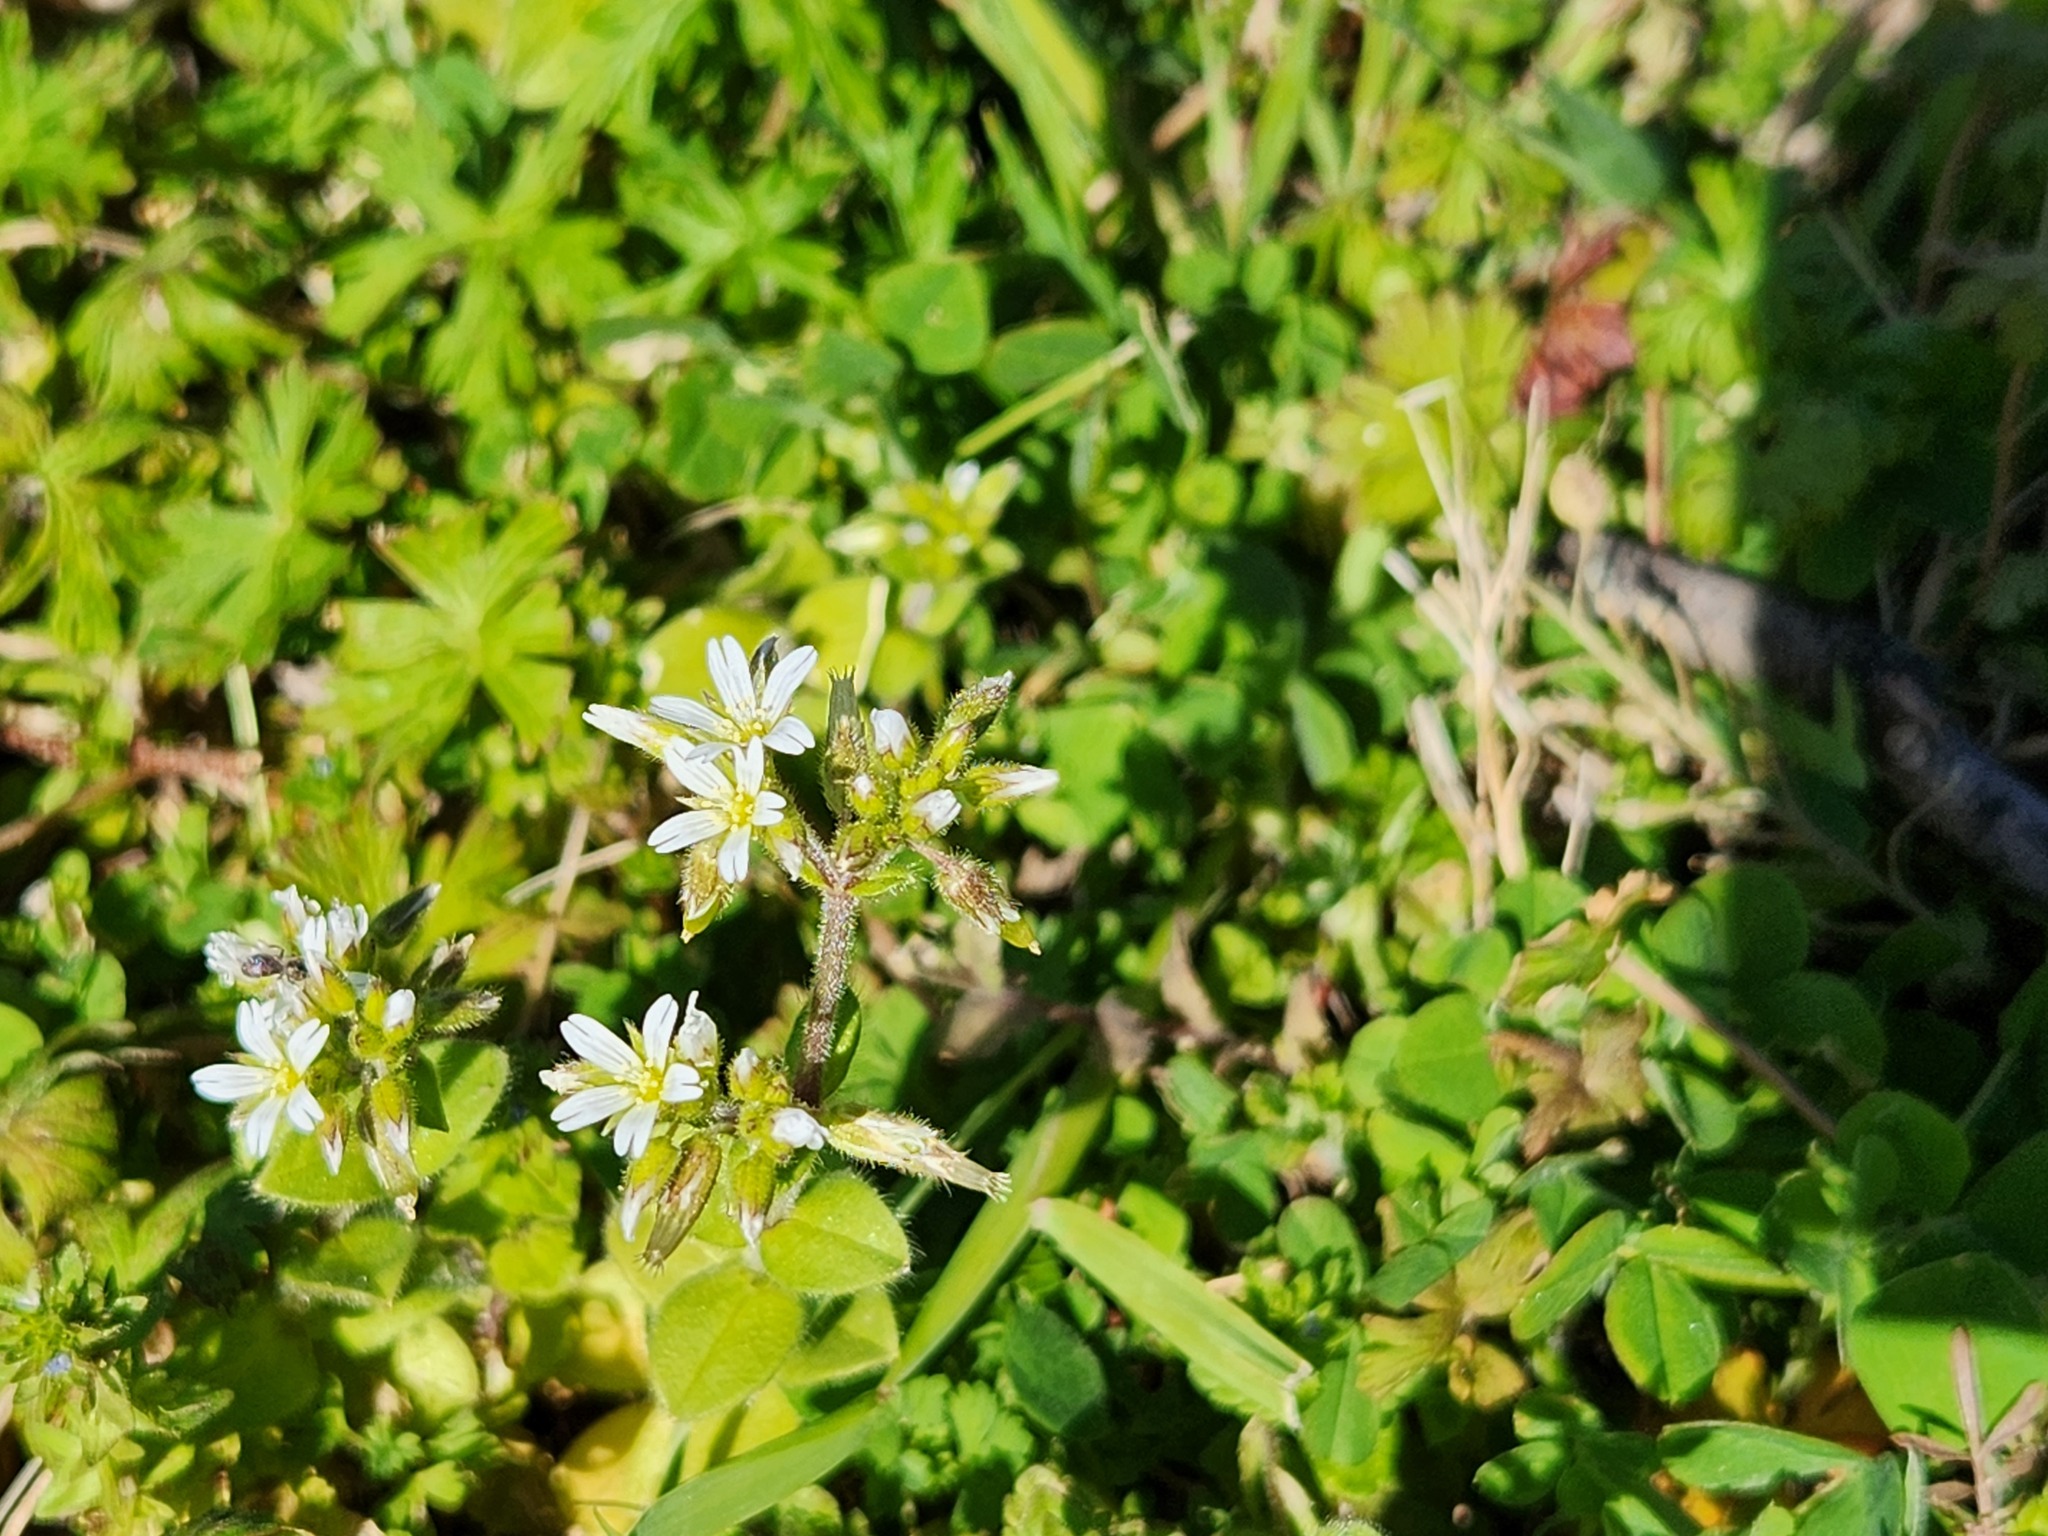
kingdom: Plantae
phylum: Tracheophyta
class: Magnoliopsida
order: Caryophyllales
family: Caryophyllaceae
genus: Cerastium
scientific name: Cerastium glomeratum
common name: Sticky chickweed
